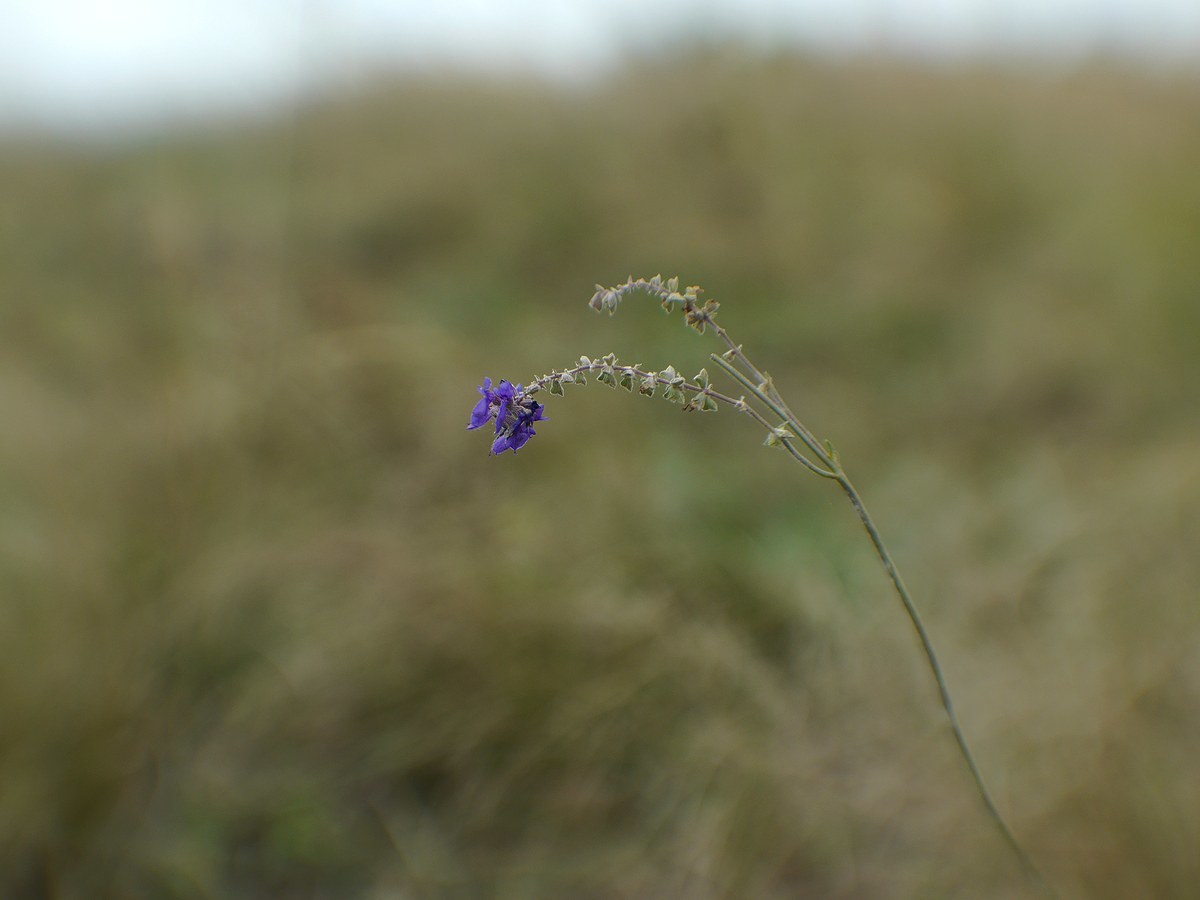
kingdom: Plantae
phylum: Tracheophyta
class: Magnoliopsida
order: Lamiales
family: Lamiaceae
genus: Salvia
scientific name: Salvia nutans
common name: Nodding sage
